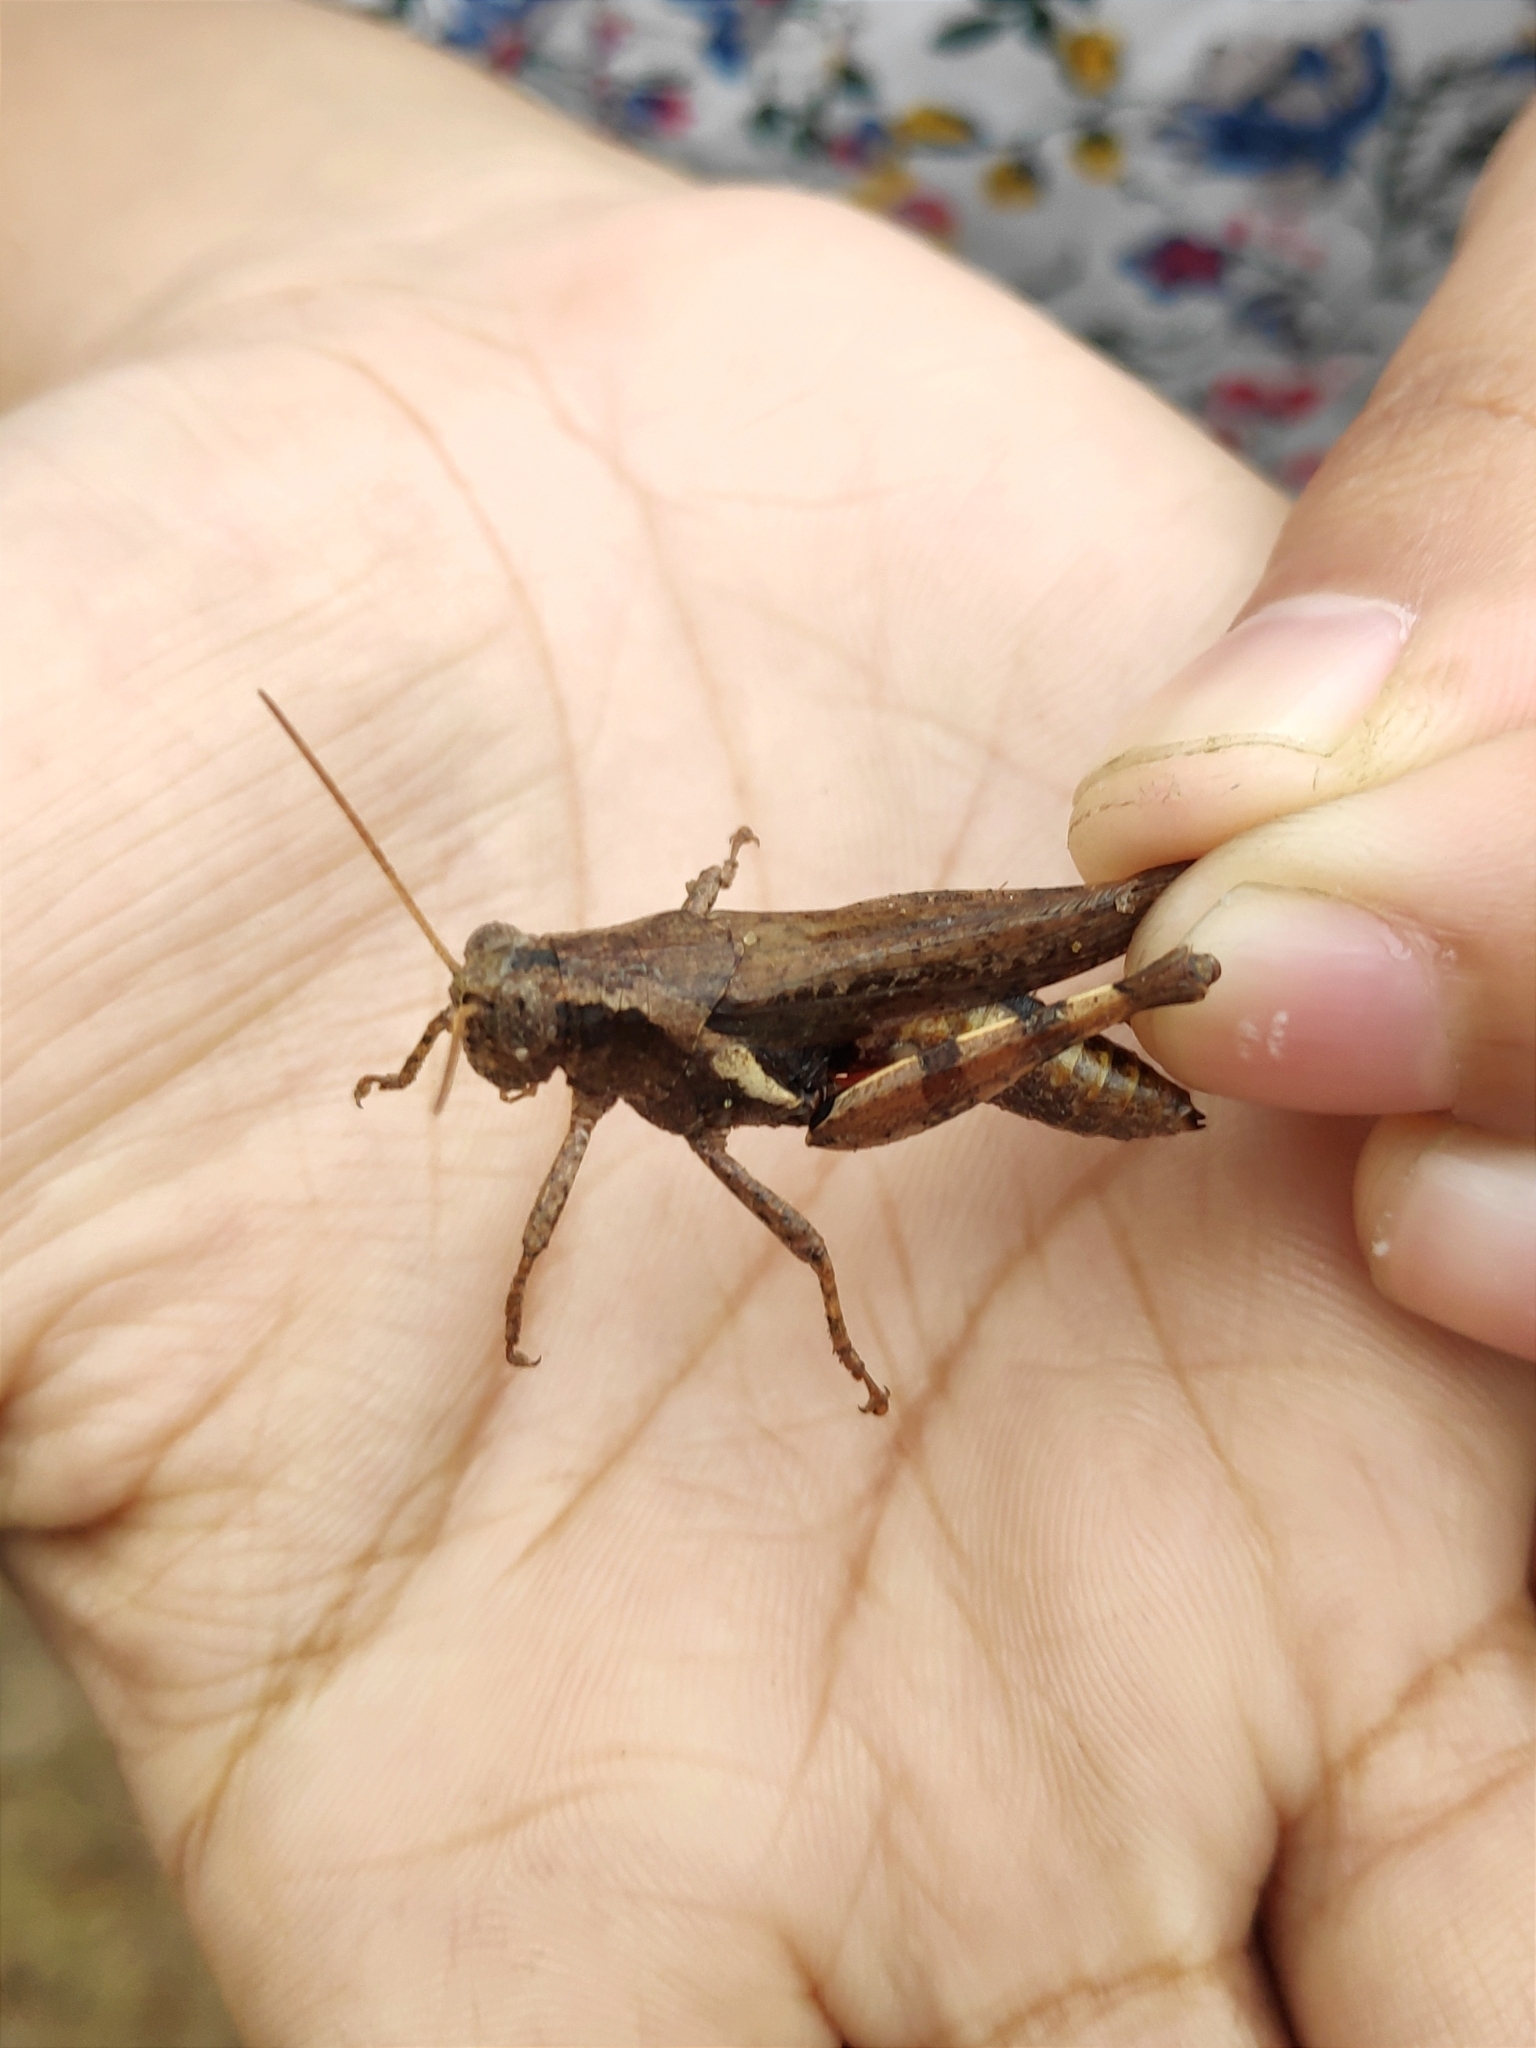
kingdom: Animalia
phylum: Arthropoda
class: Insecta
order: Orthoptera
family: Acrididae
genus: Xenocatantops
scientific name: Xenocatantops humile
